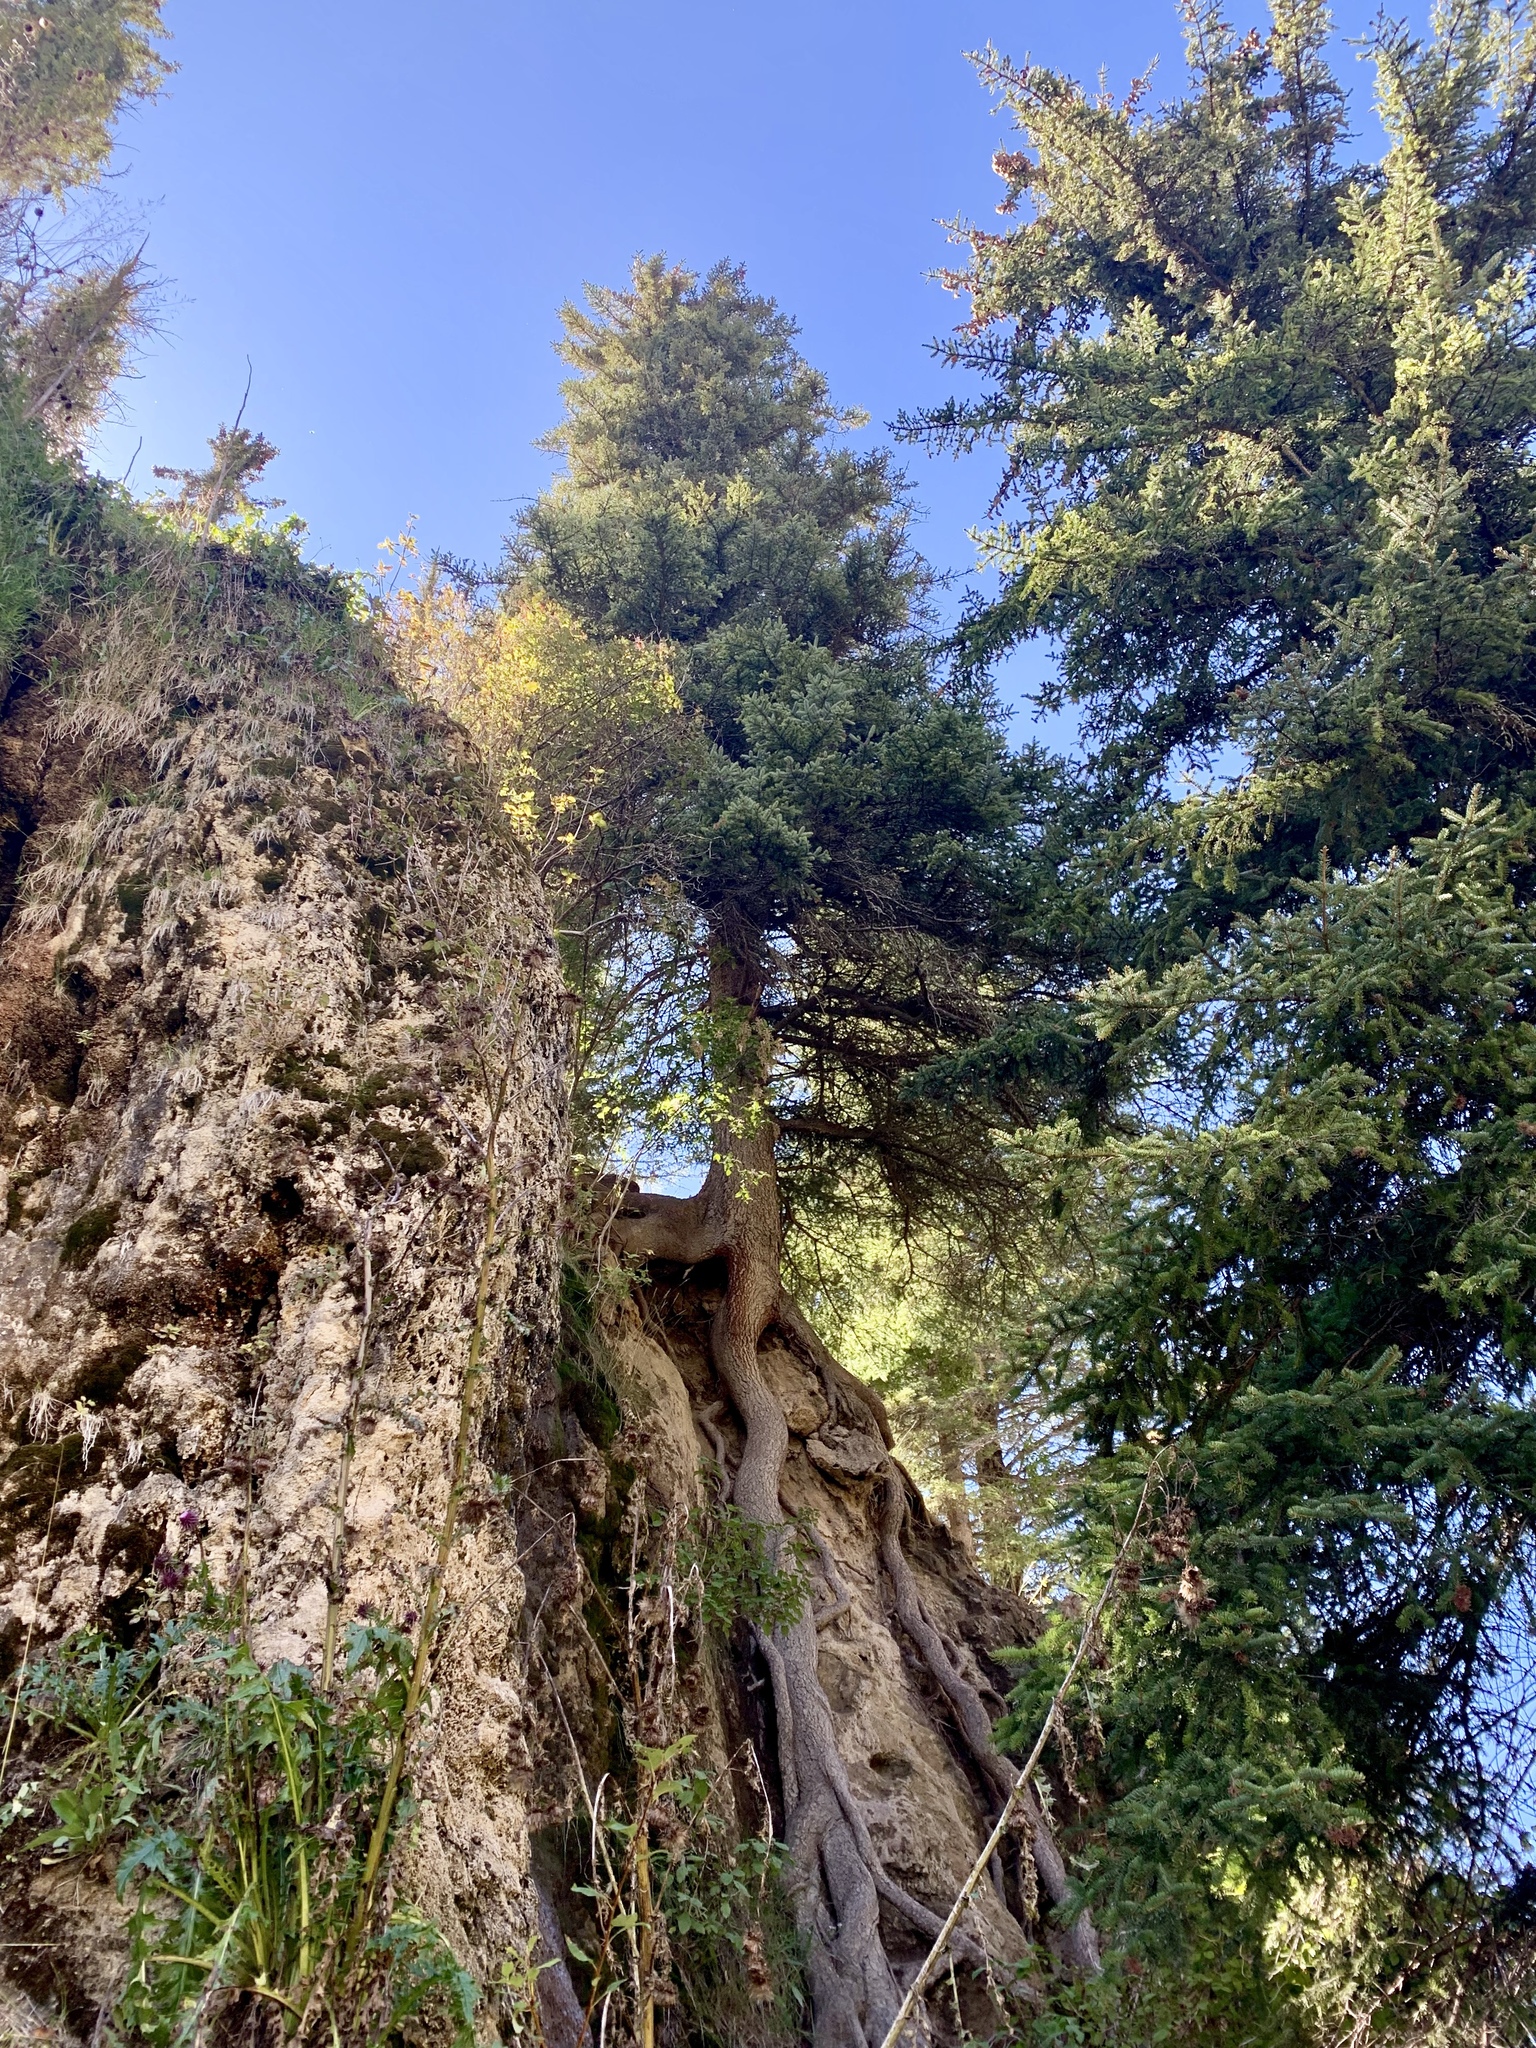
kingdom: Plantae
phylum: Tracheophyta
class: Pinopsida
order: Pinales
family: Pinaceae
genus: Picea
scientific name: Picea engelmannii
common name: Engelmann spruce
